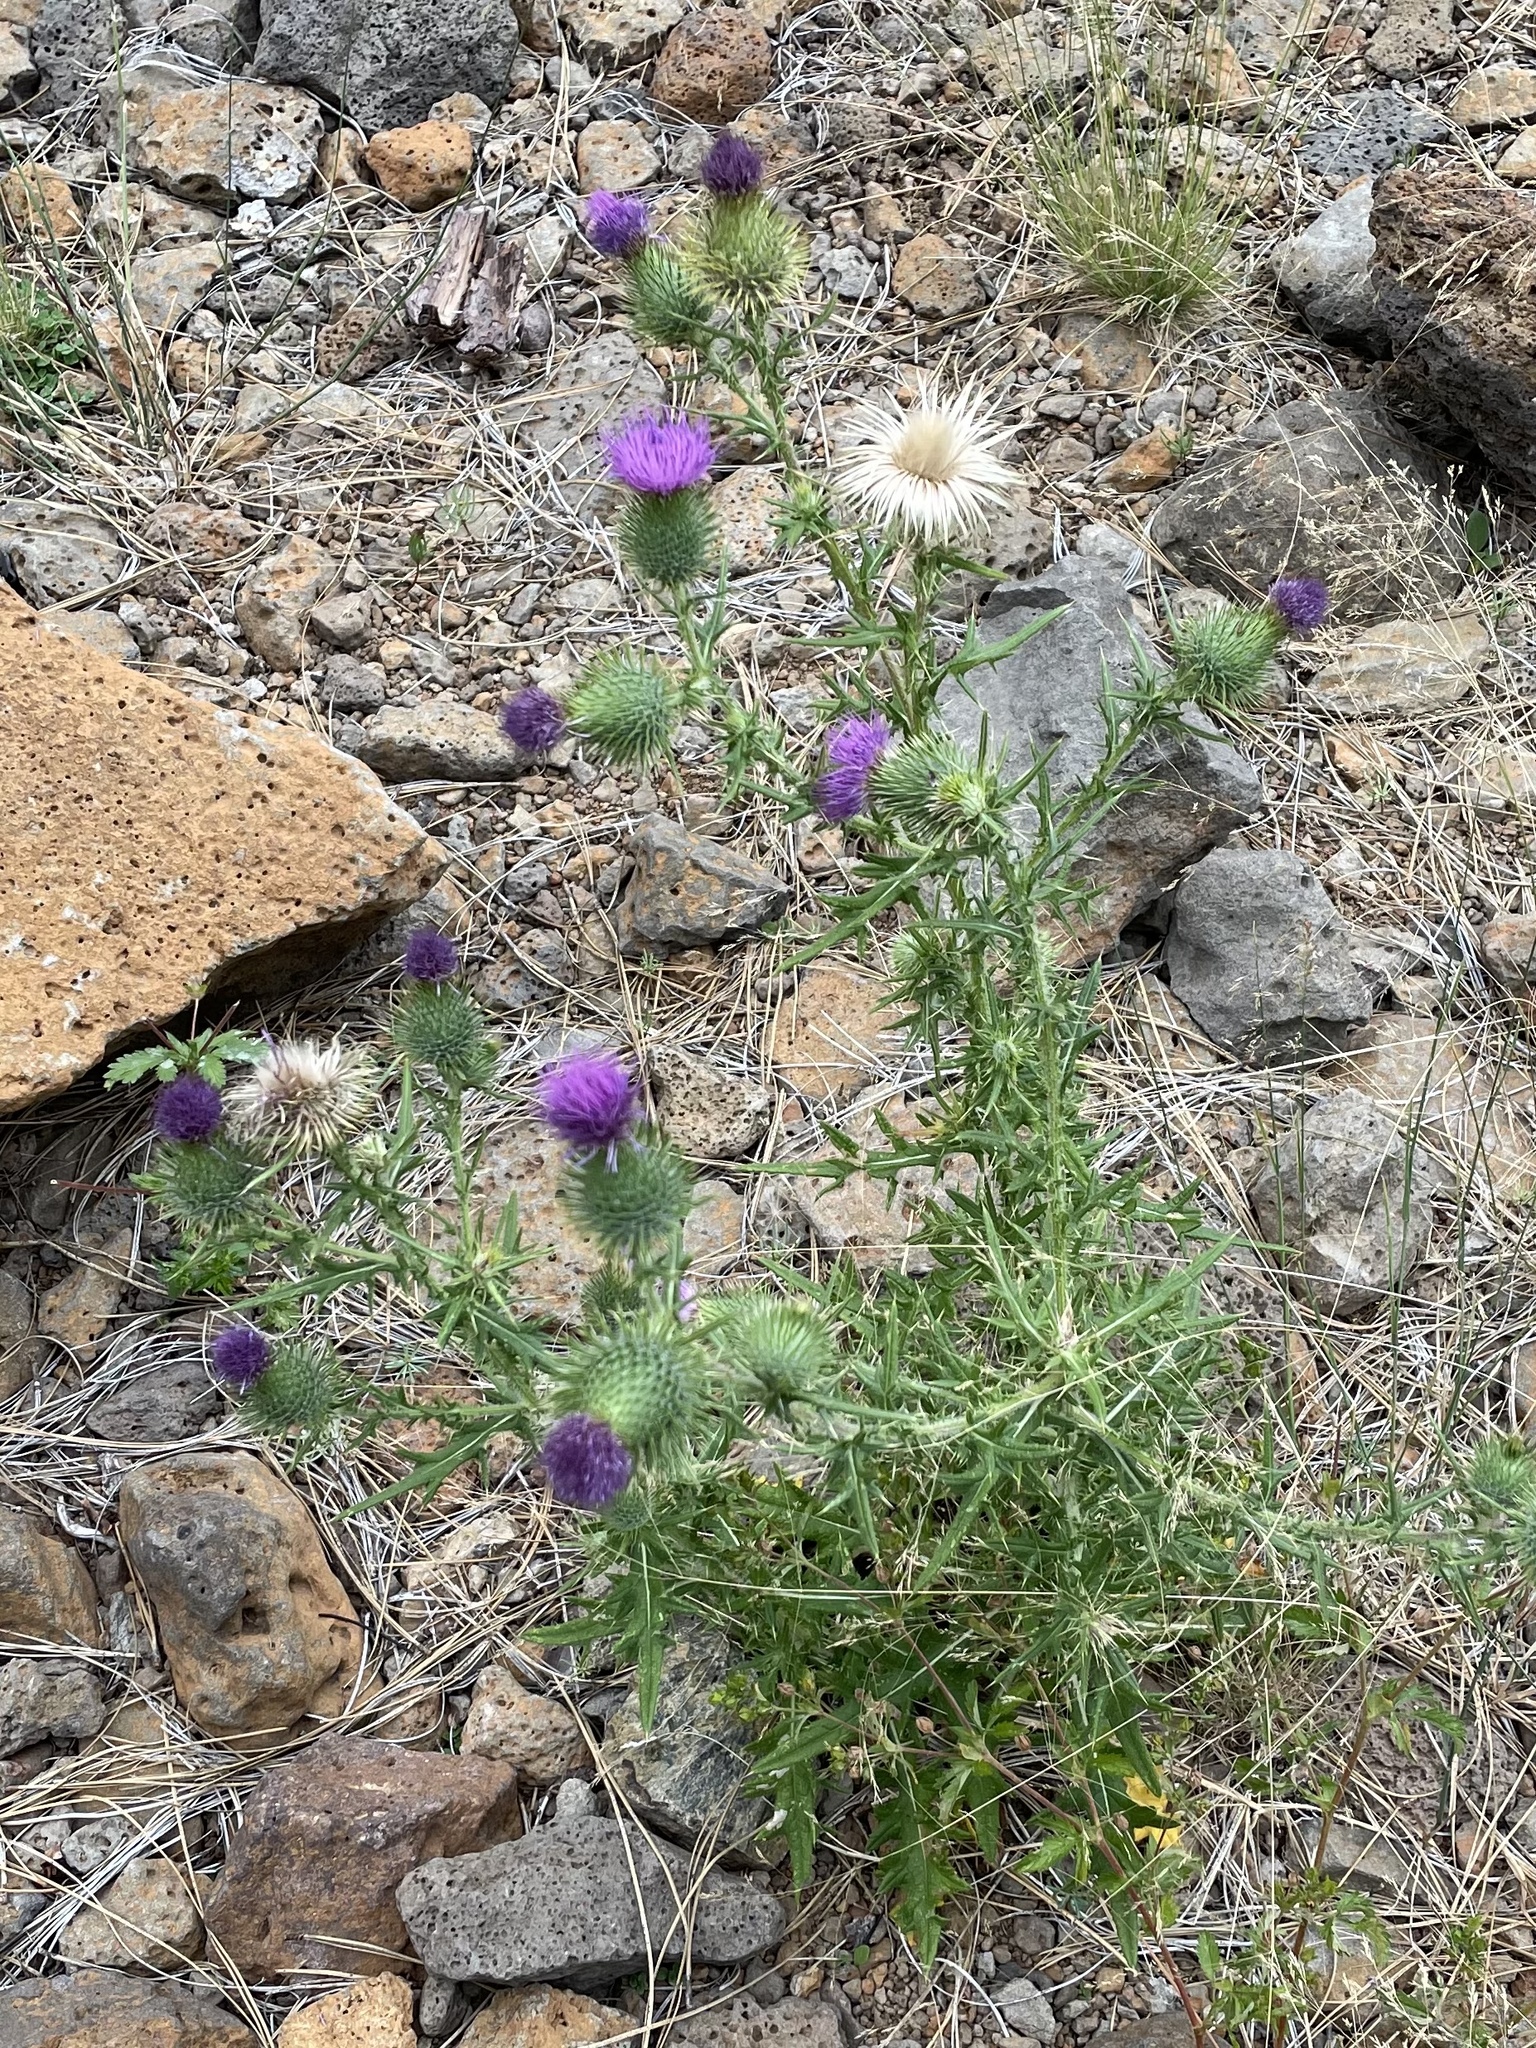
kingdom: Plantae
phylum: Tracheophyta
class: Magnoliopsida
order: Asterales
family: Asteraceae
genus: Cirsium
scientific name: Cirsium vulgare
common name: Bull thistle
